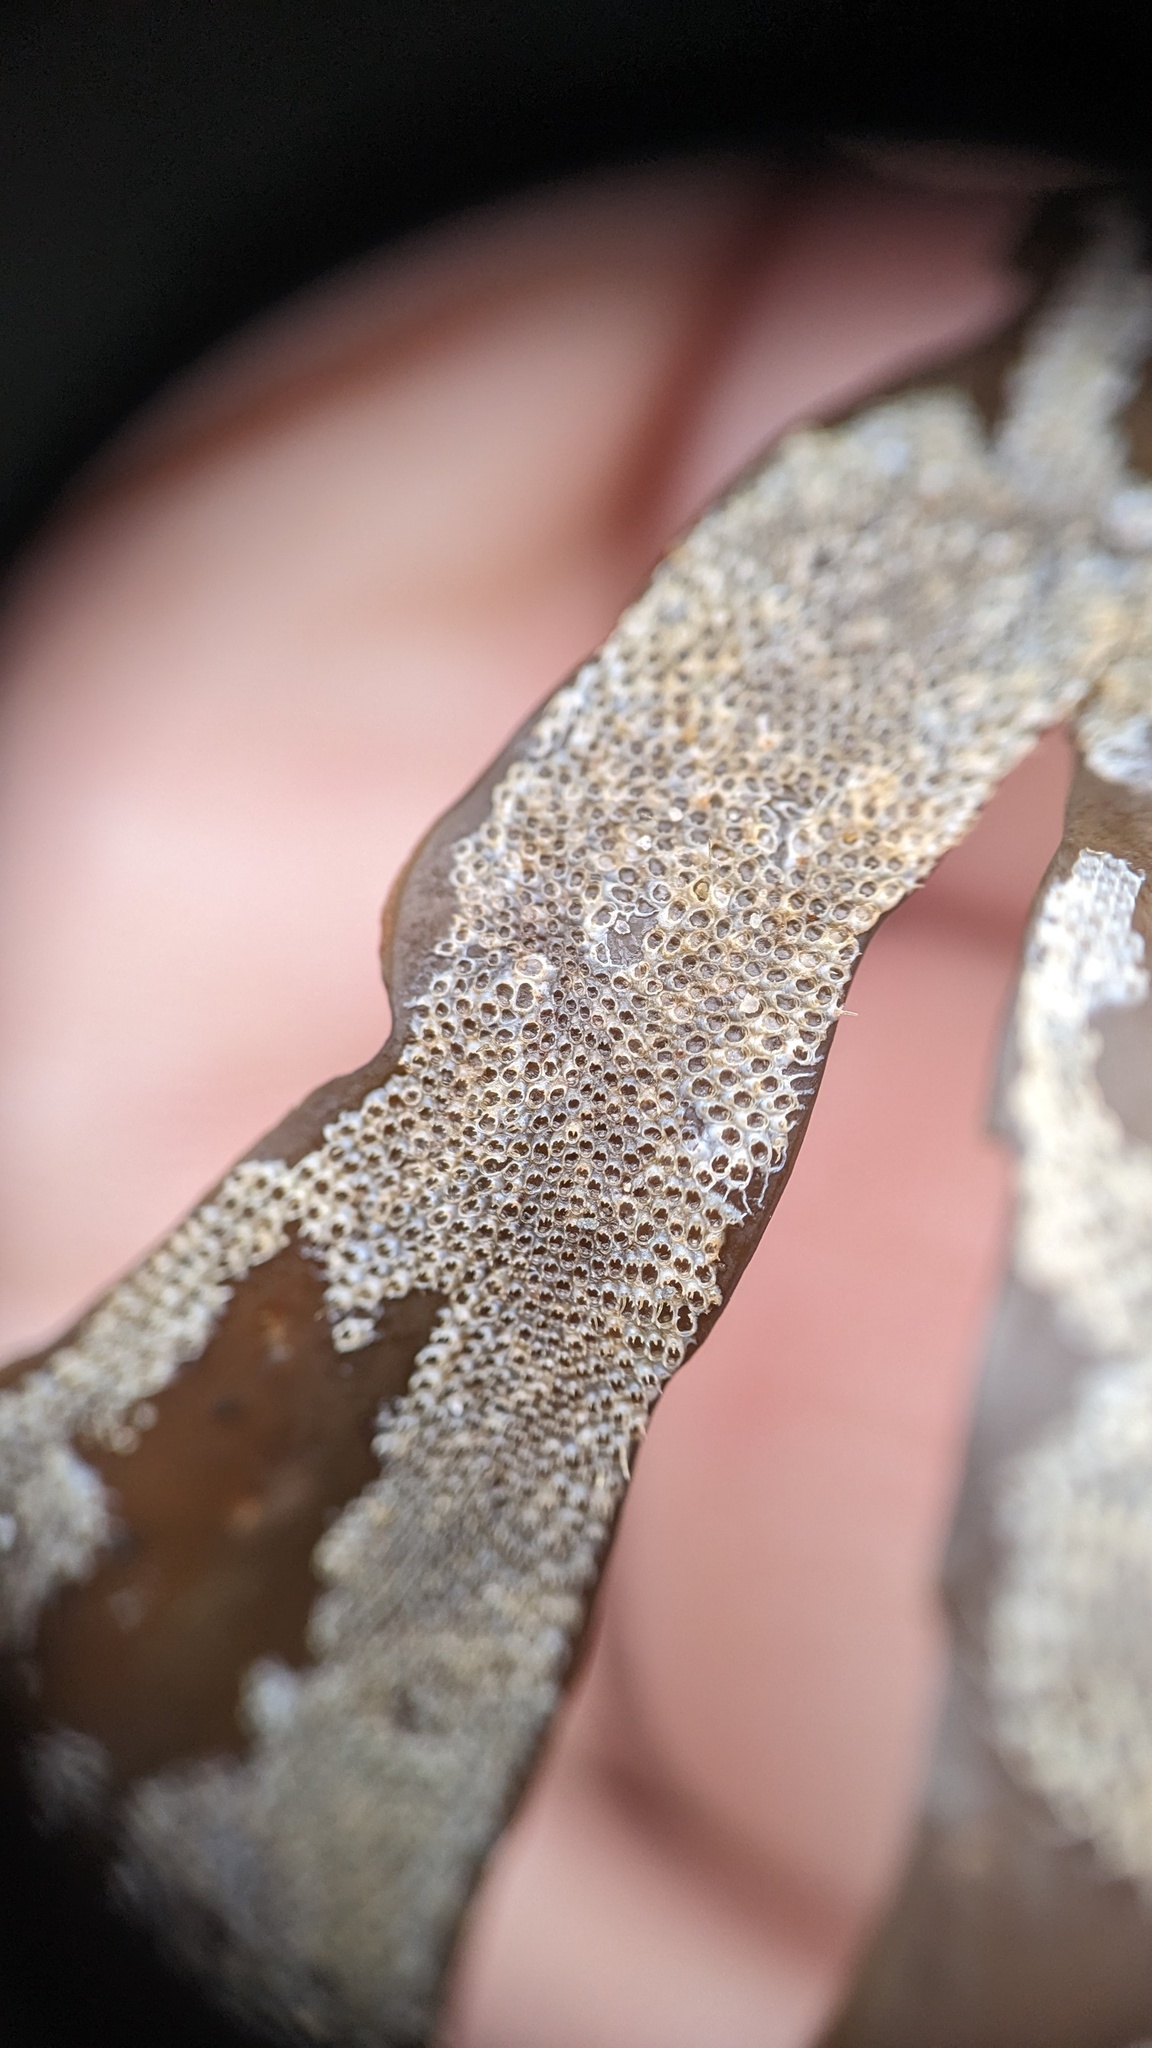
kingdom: Animalia
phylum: Bryozoa
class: Gymnolaemata
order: Cheilostomatida
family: Electridae
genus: Electra
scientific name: Electra pilosa
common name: Hairy sea-mat
